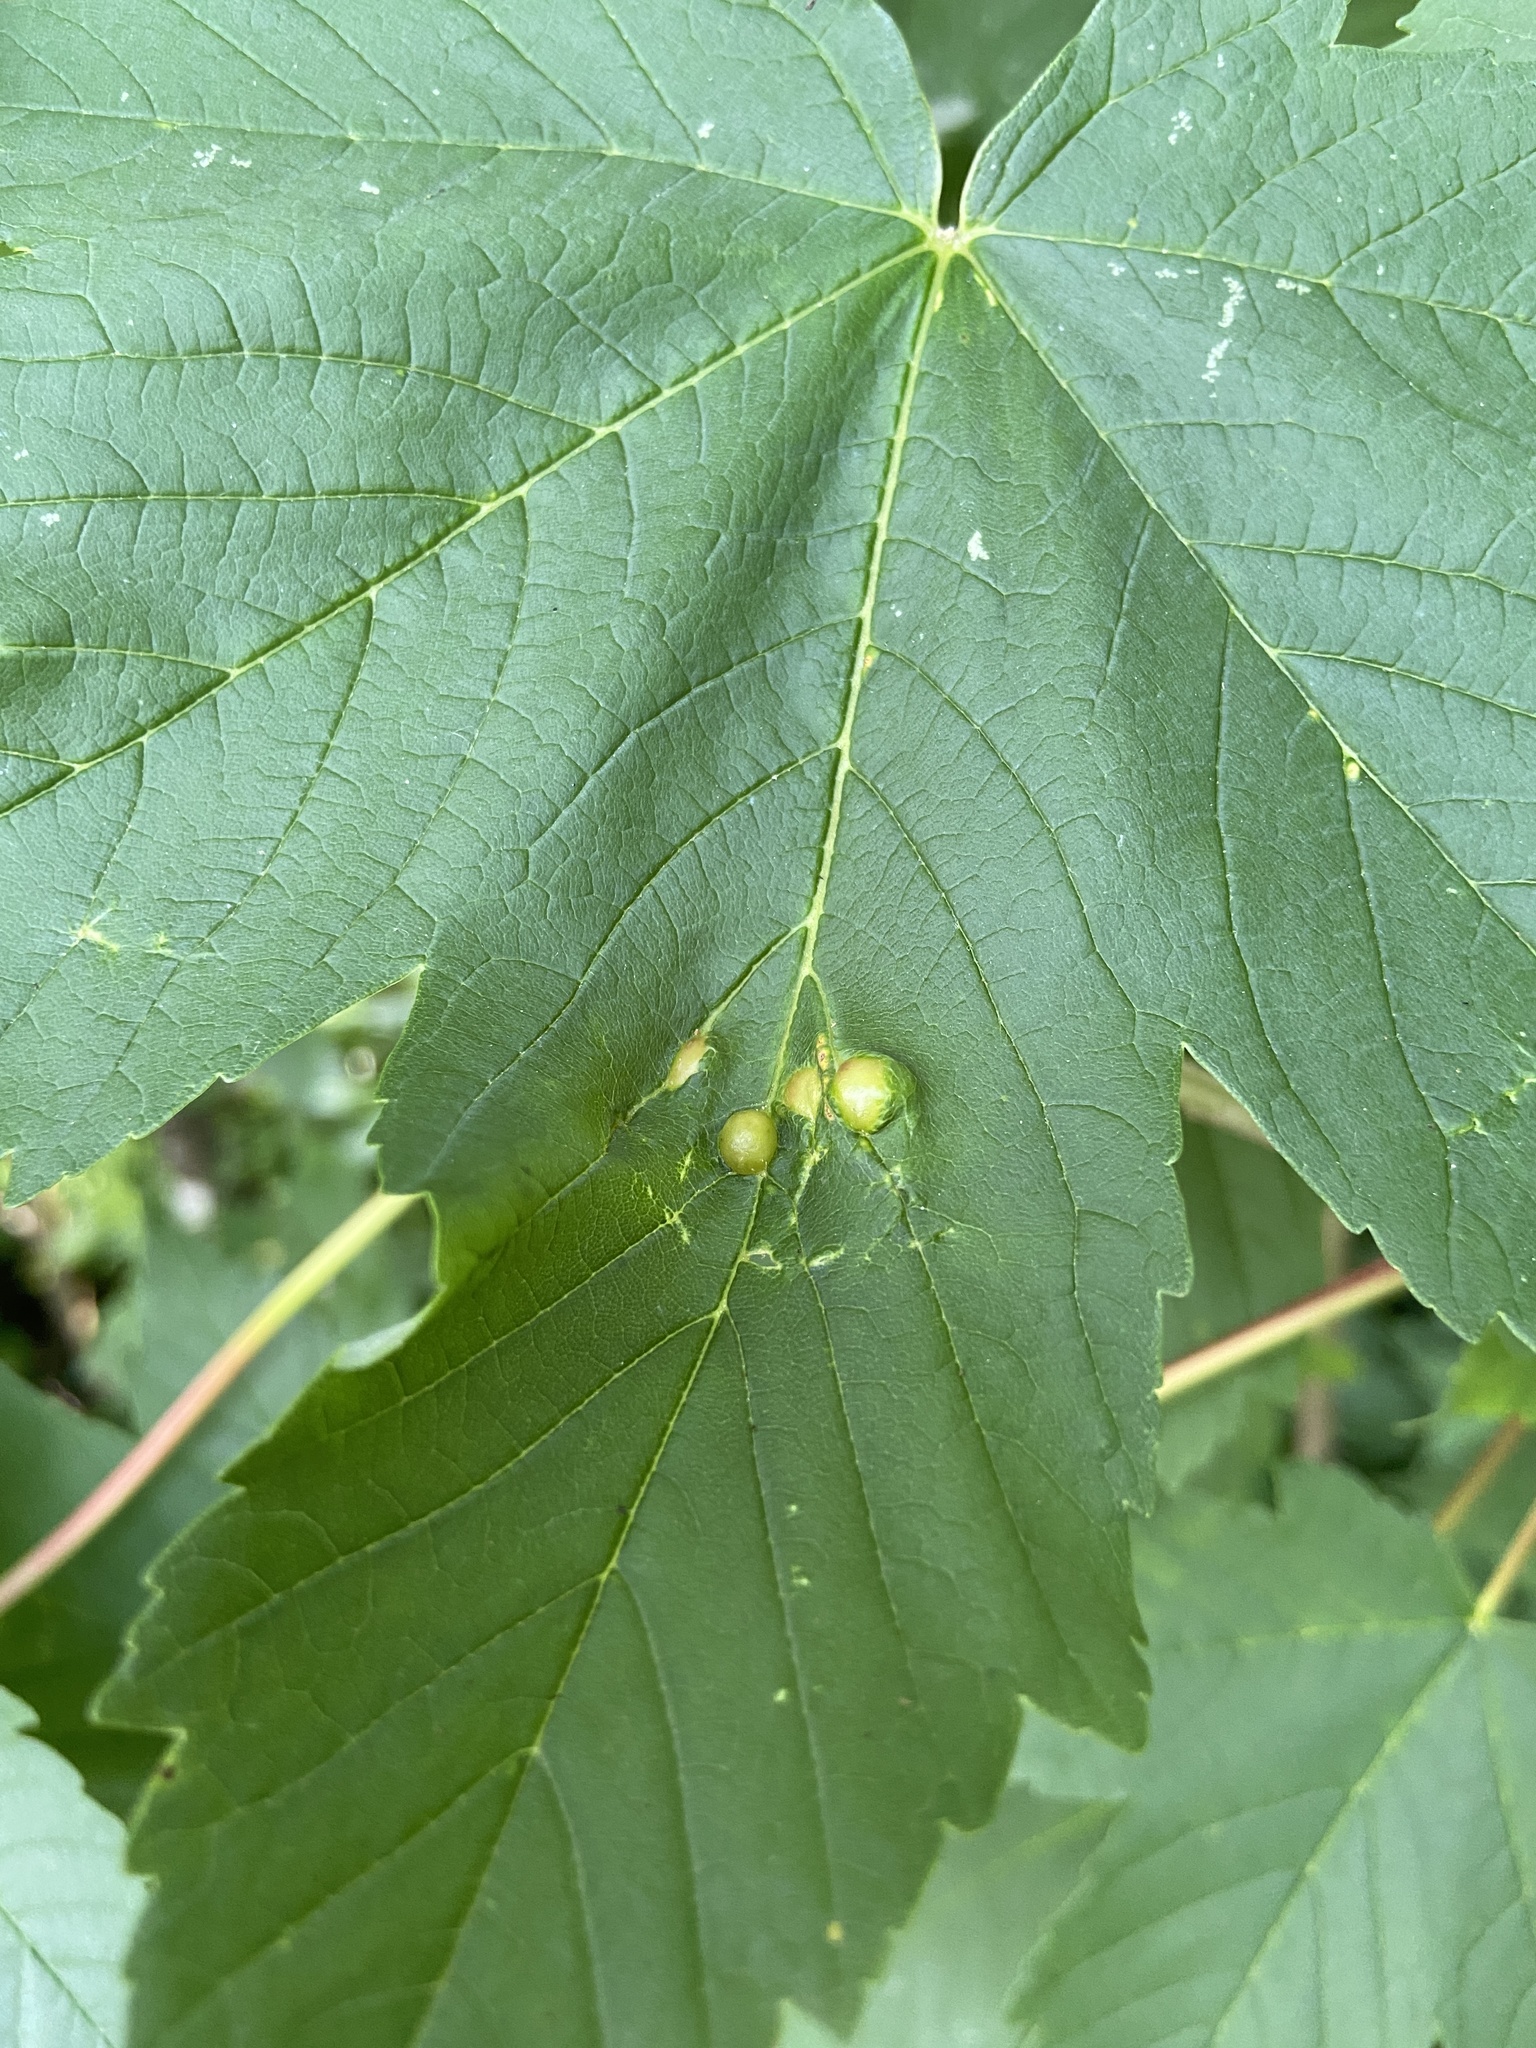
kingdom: Animalia
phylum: Arthropoda
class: Insecta
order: Hymenoptera
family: Cynipidae
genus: Pediaspis
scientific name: Pediaspis aceris
